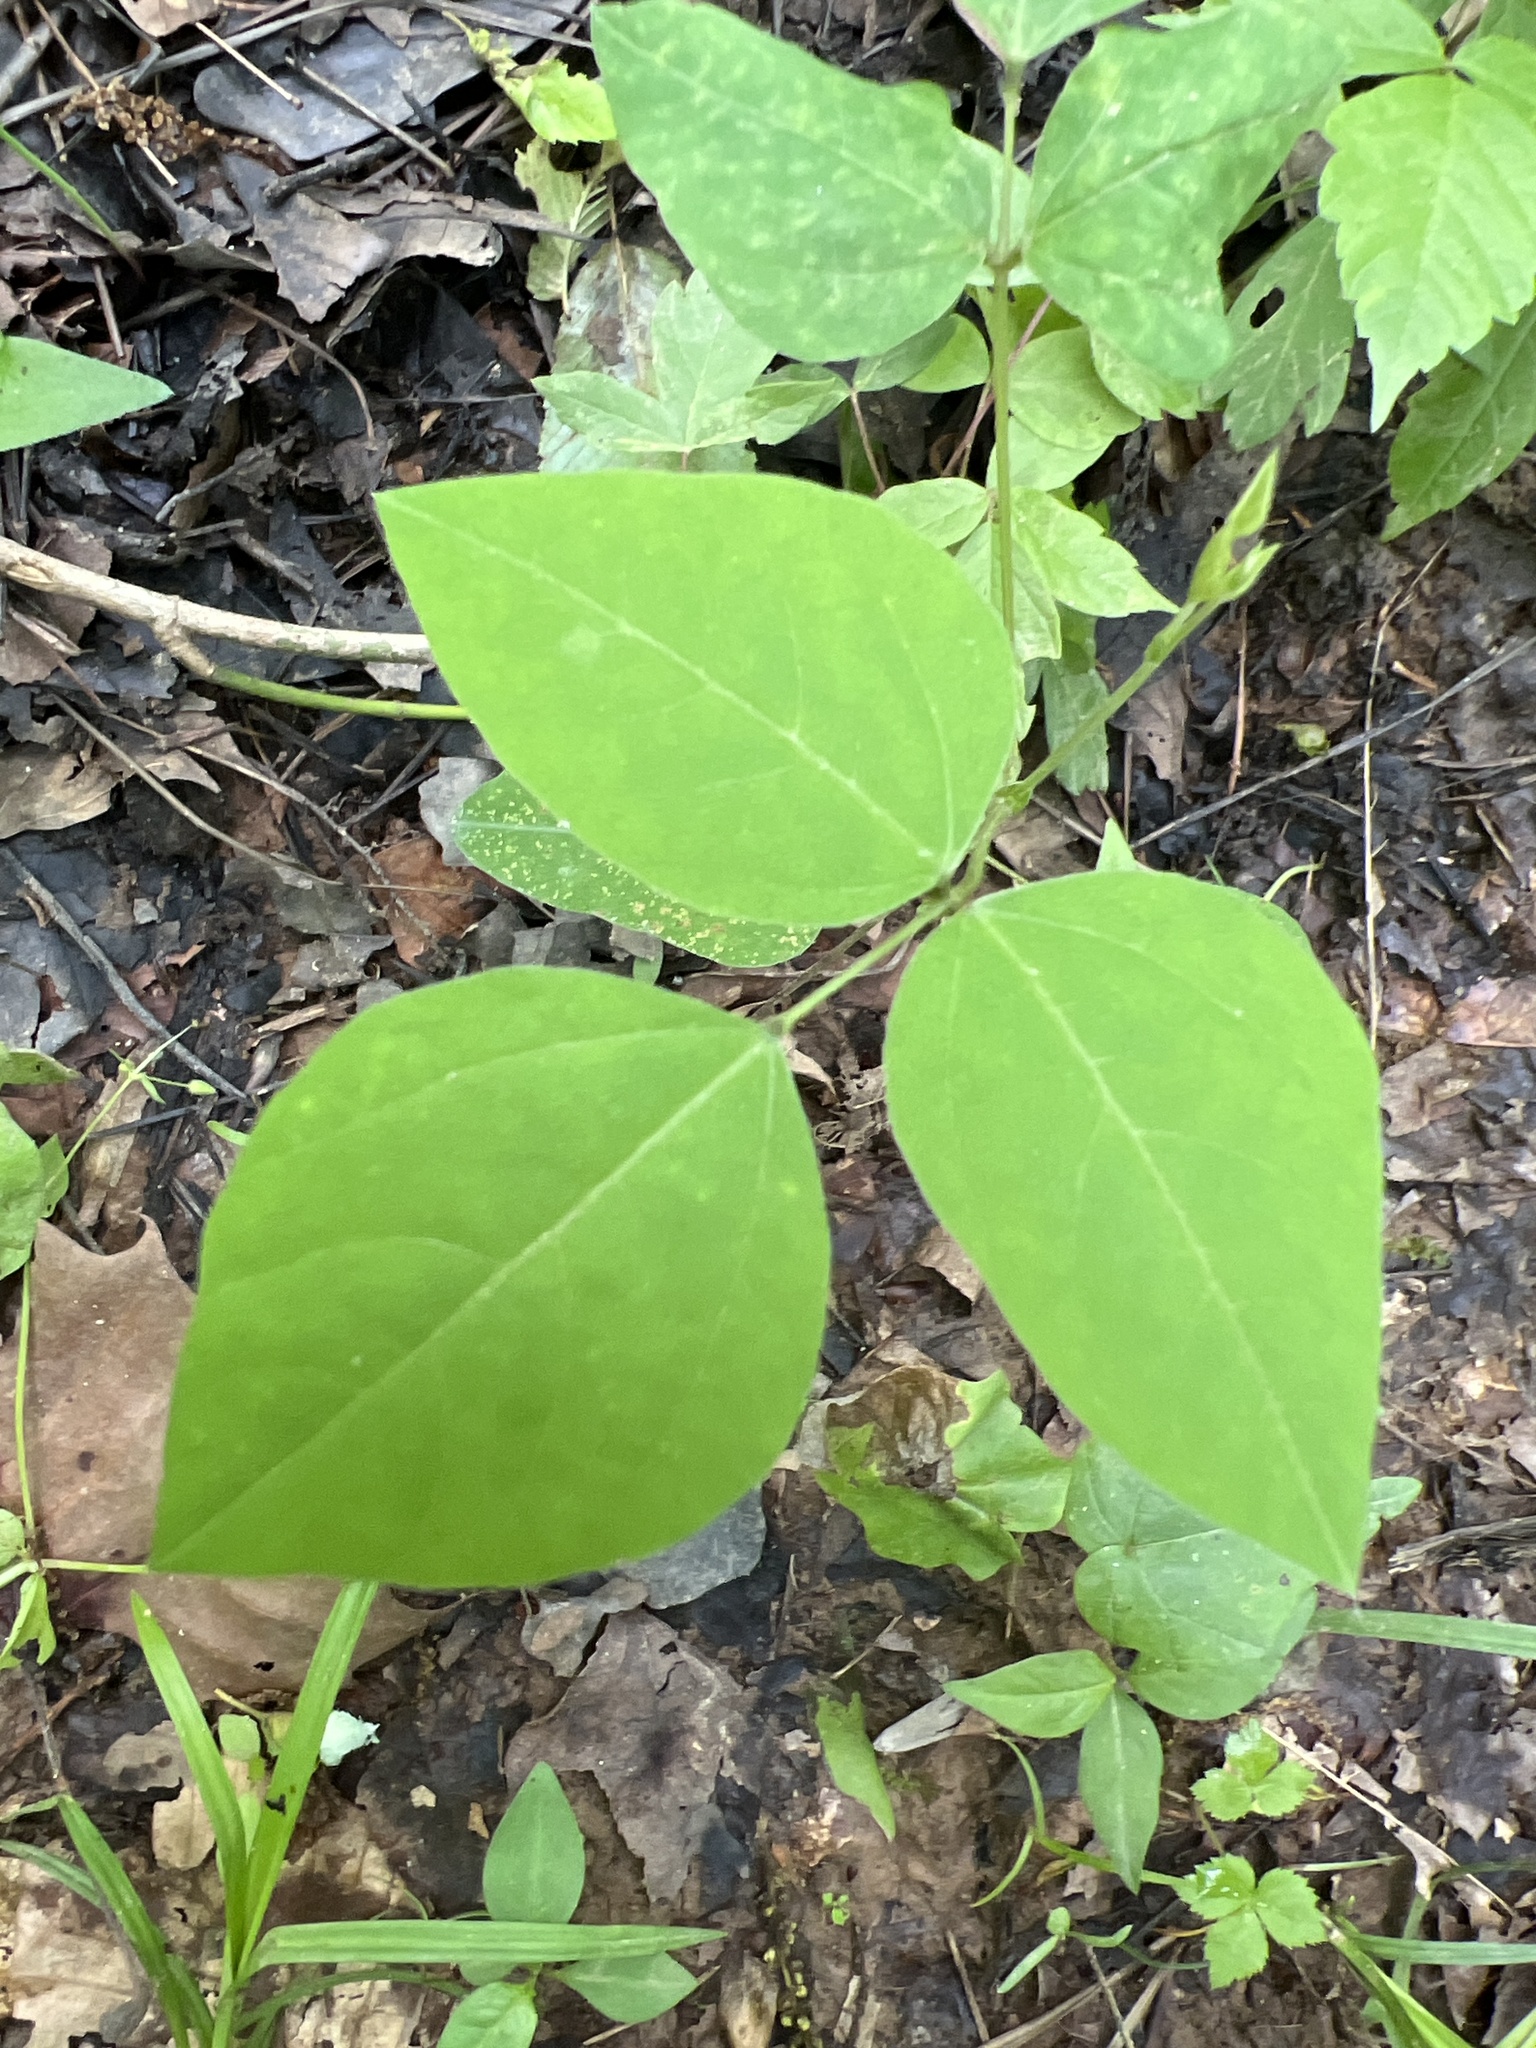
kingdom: Plantae
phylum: Tracheophyta
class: Magnoliopsida
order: Fabales
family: Fabaceae
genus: Amphicarpaea
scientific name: Amphicarpaea bracteata
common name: American hog peanut
